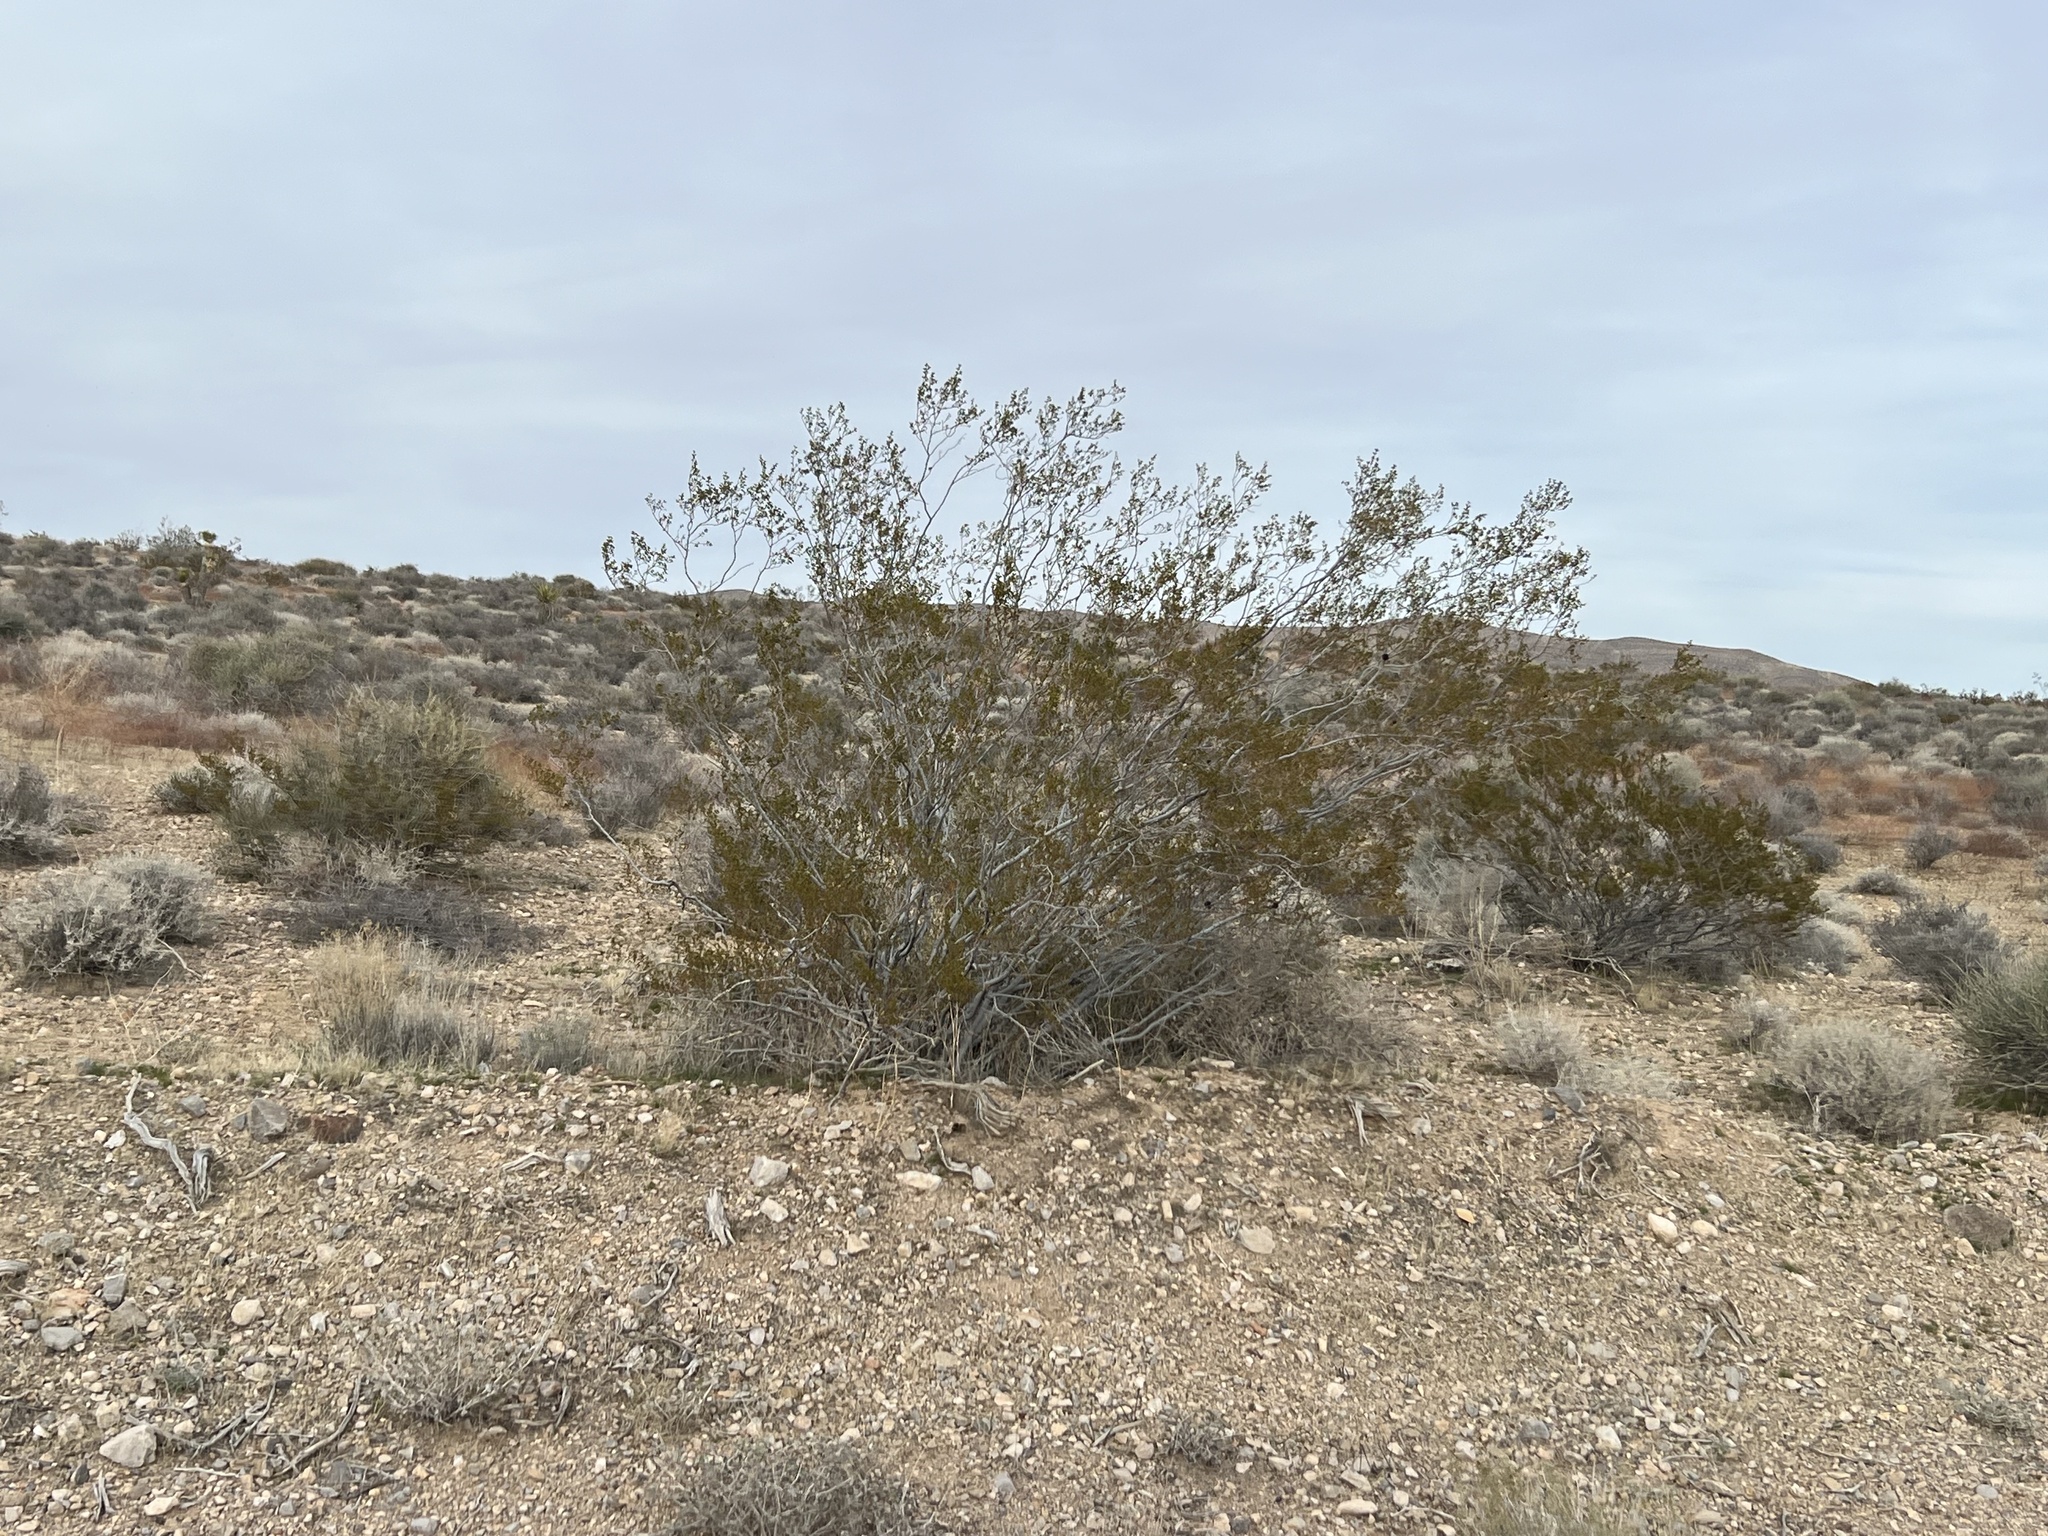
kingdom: Plantae
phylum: Tracheophyta
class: Magnoliopsida
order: Zygophyllales
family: Zygophyllaceae
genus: Larrea
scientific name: Larrea tridentata
